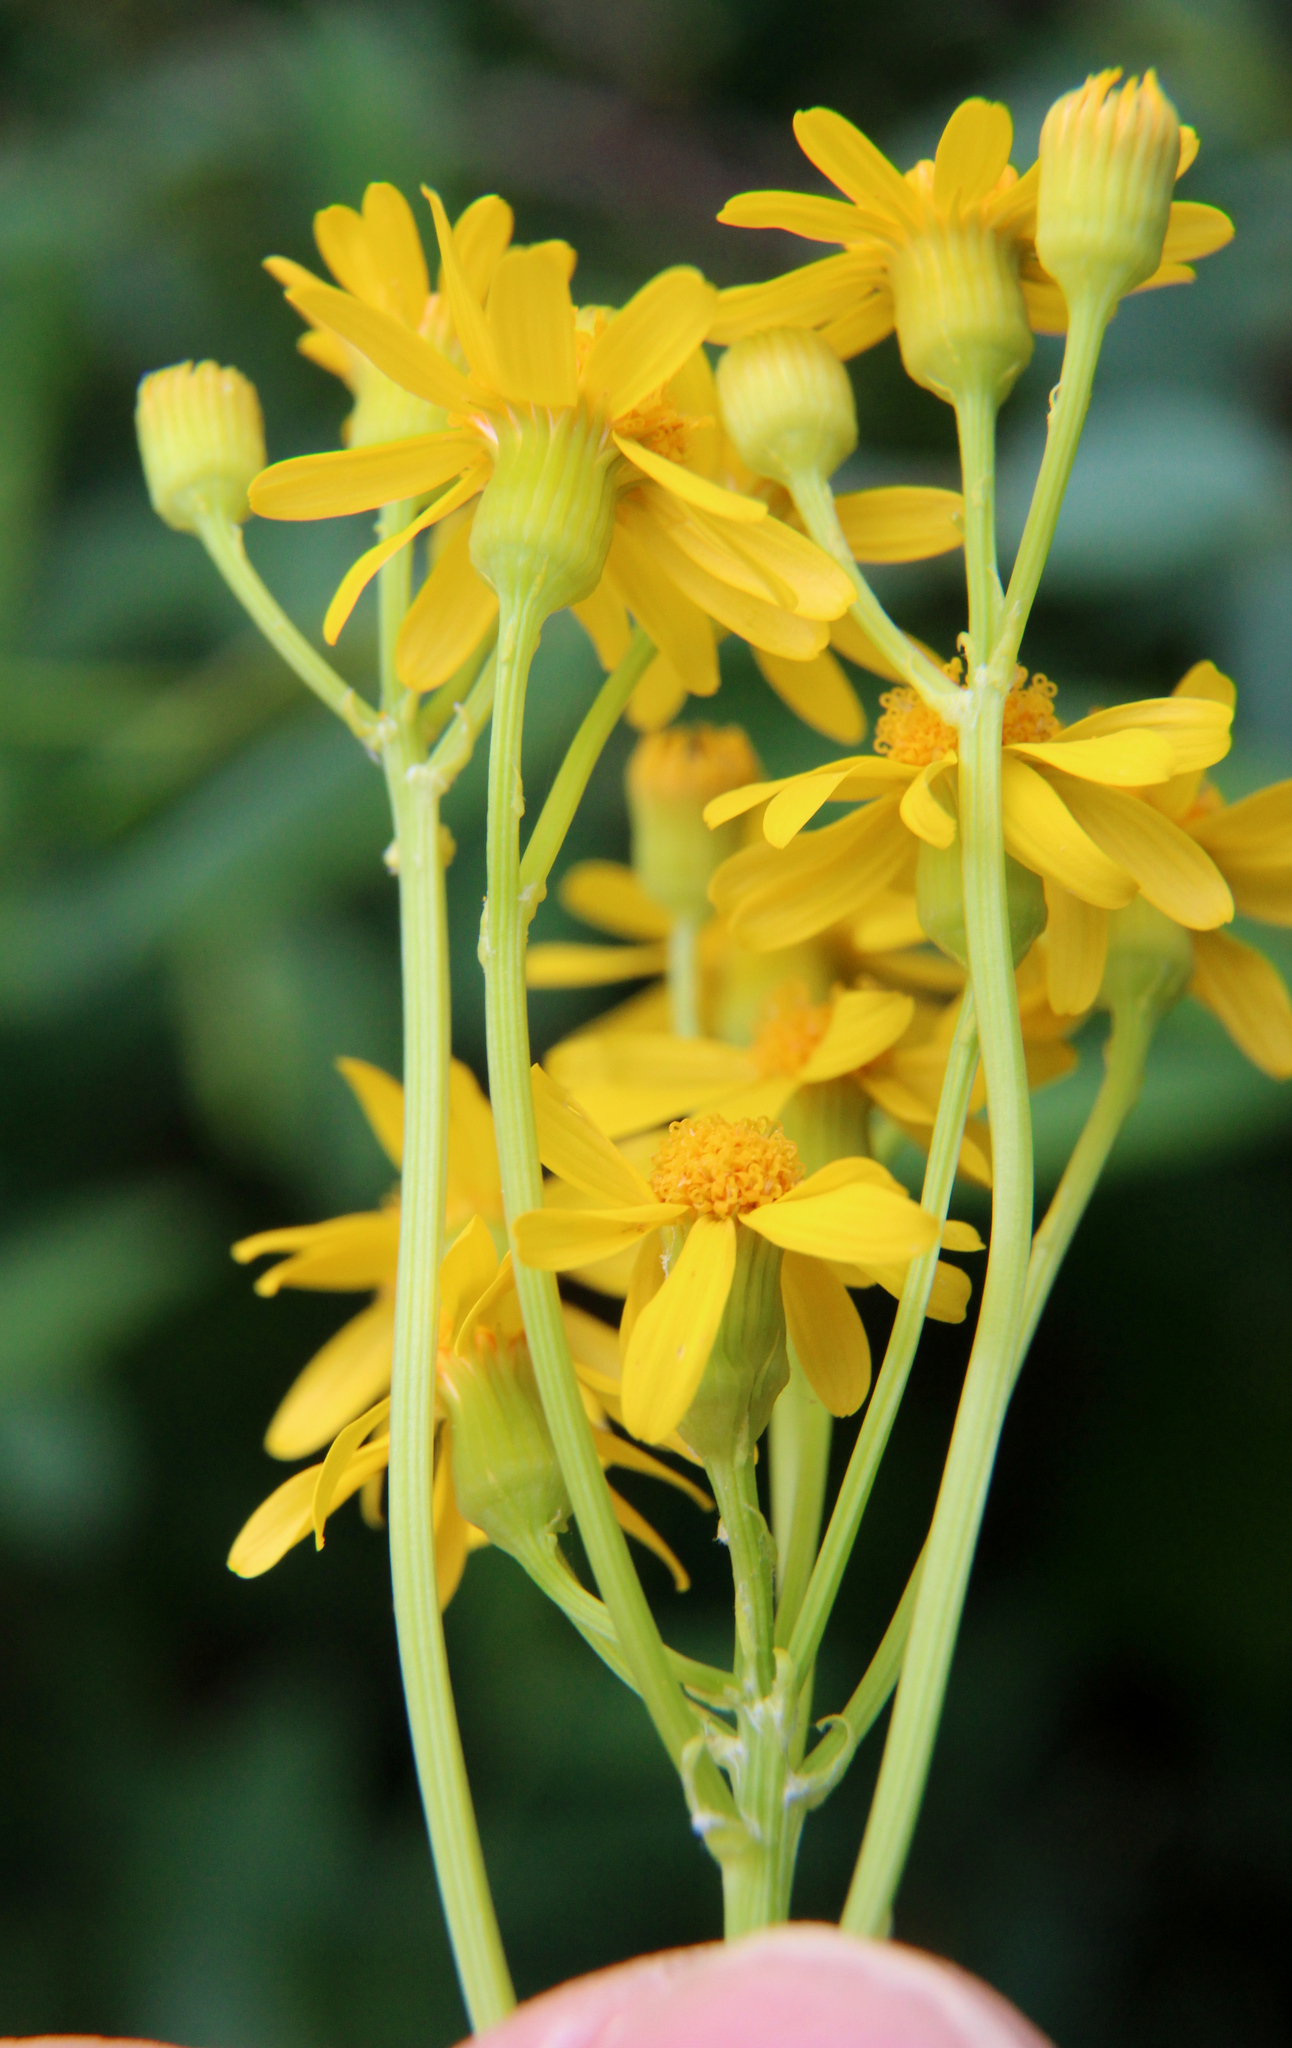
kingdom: Plantae
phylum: Tracheophyta
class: Magnoliopsida
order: Asterales
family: Asteraceae
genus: Packera
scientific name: Packera anonyma
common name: Small ragwort
